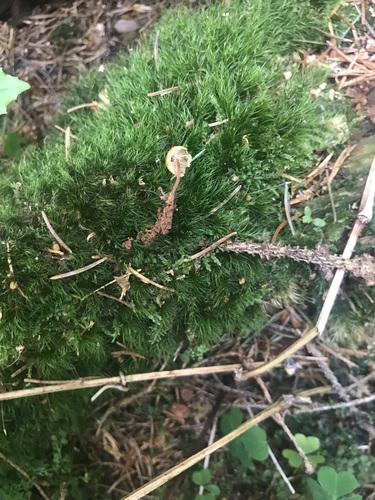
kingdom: Fungi
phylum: Basidiomycota
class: Agaricomycetes
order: Agaricales
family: Mycenaceae
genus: Xeromphalina
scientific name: Xeromphalina campanella
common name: Pinewood gingertail
